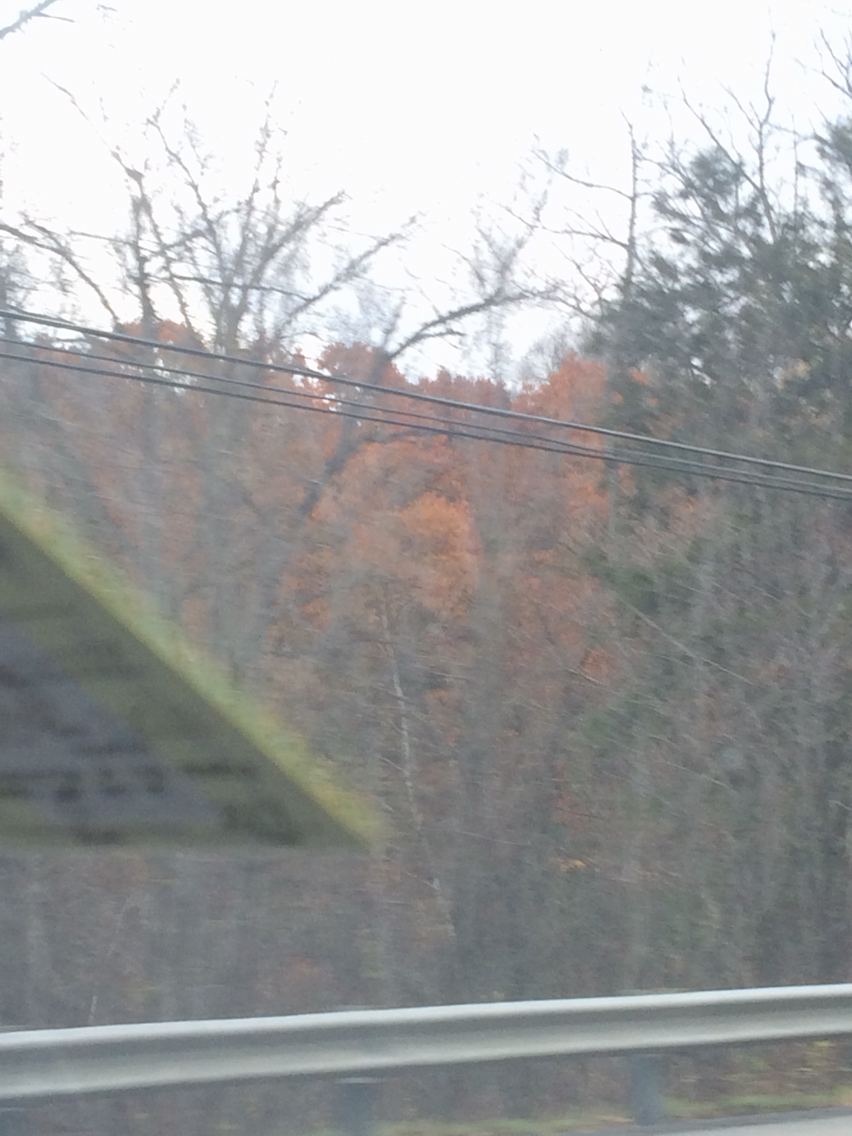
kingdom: Plantae
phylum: Tracheophyta
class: Magnoliopsida
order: Fagales
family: Fagaceae
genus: Quercus
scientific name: Quercus rubra
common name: Red oak
